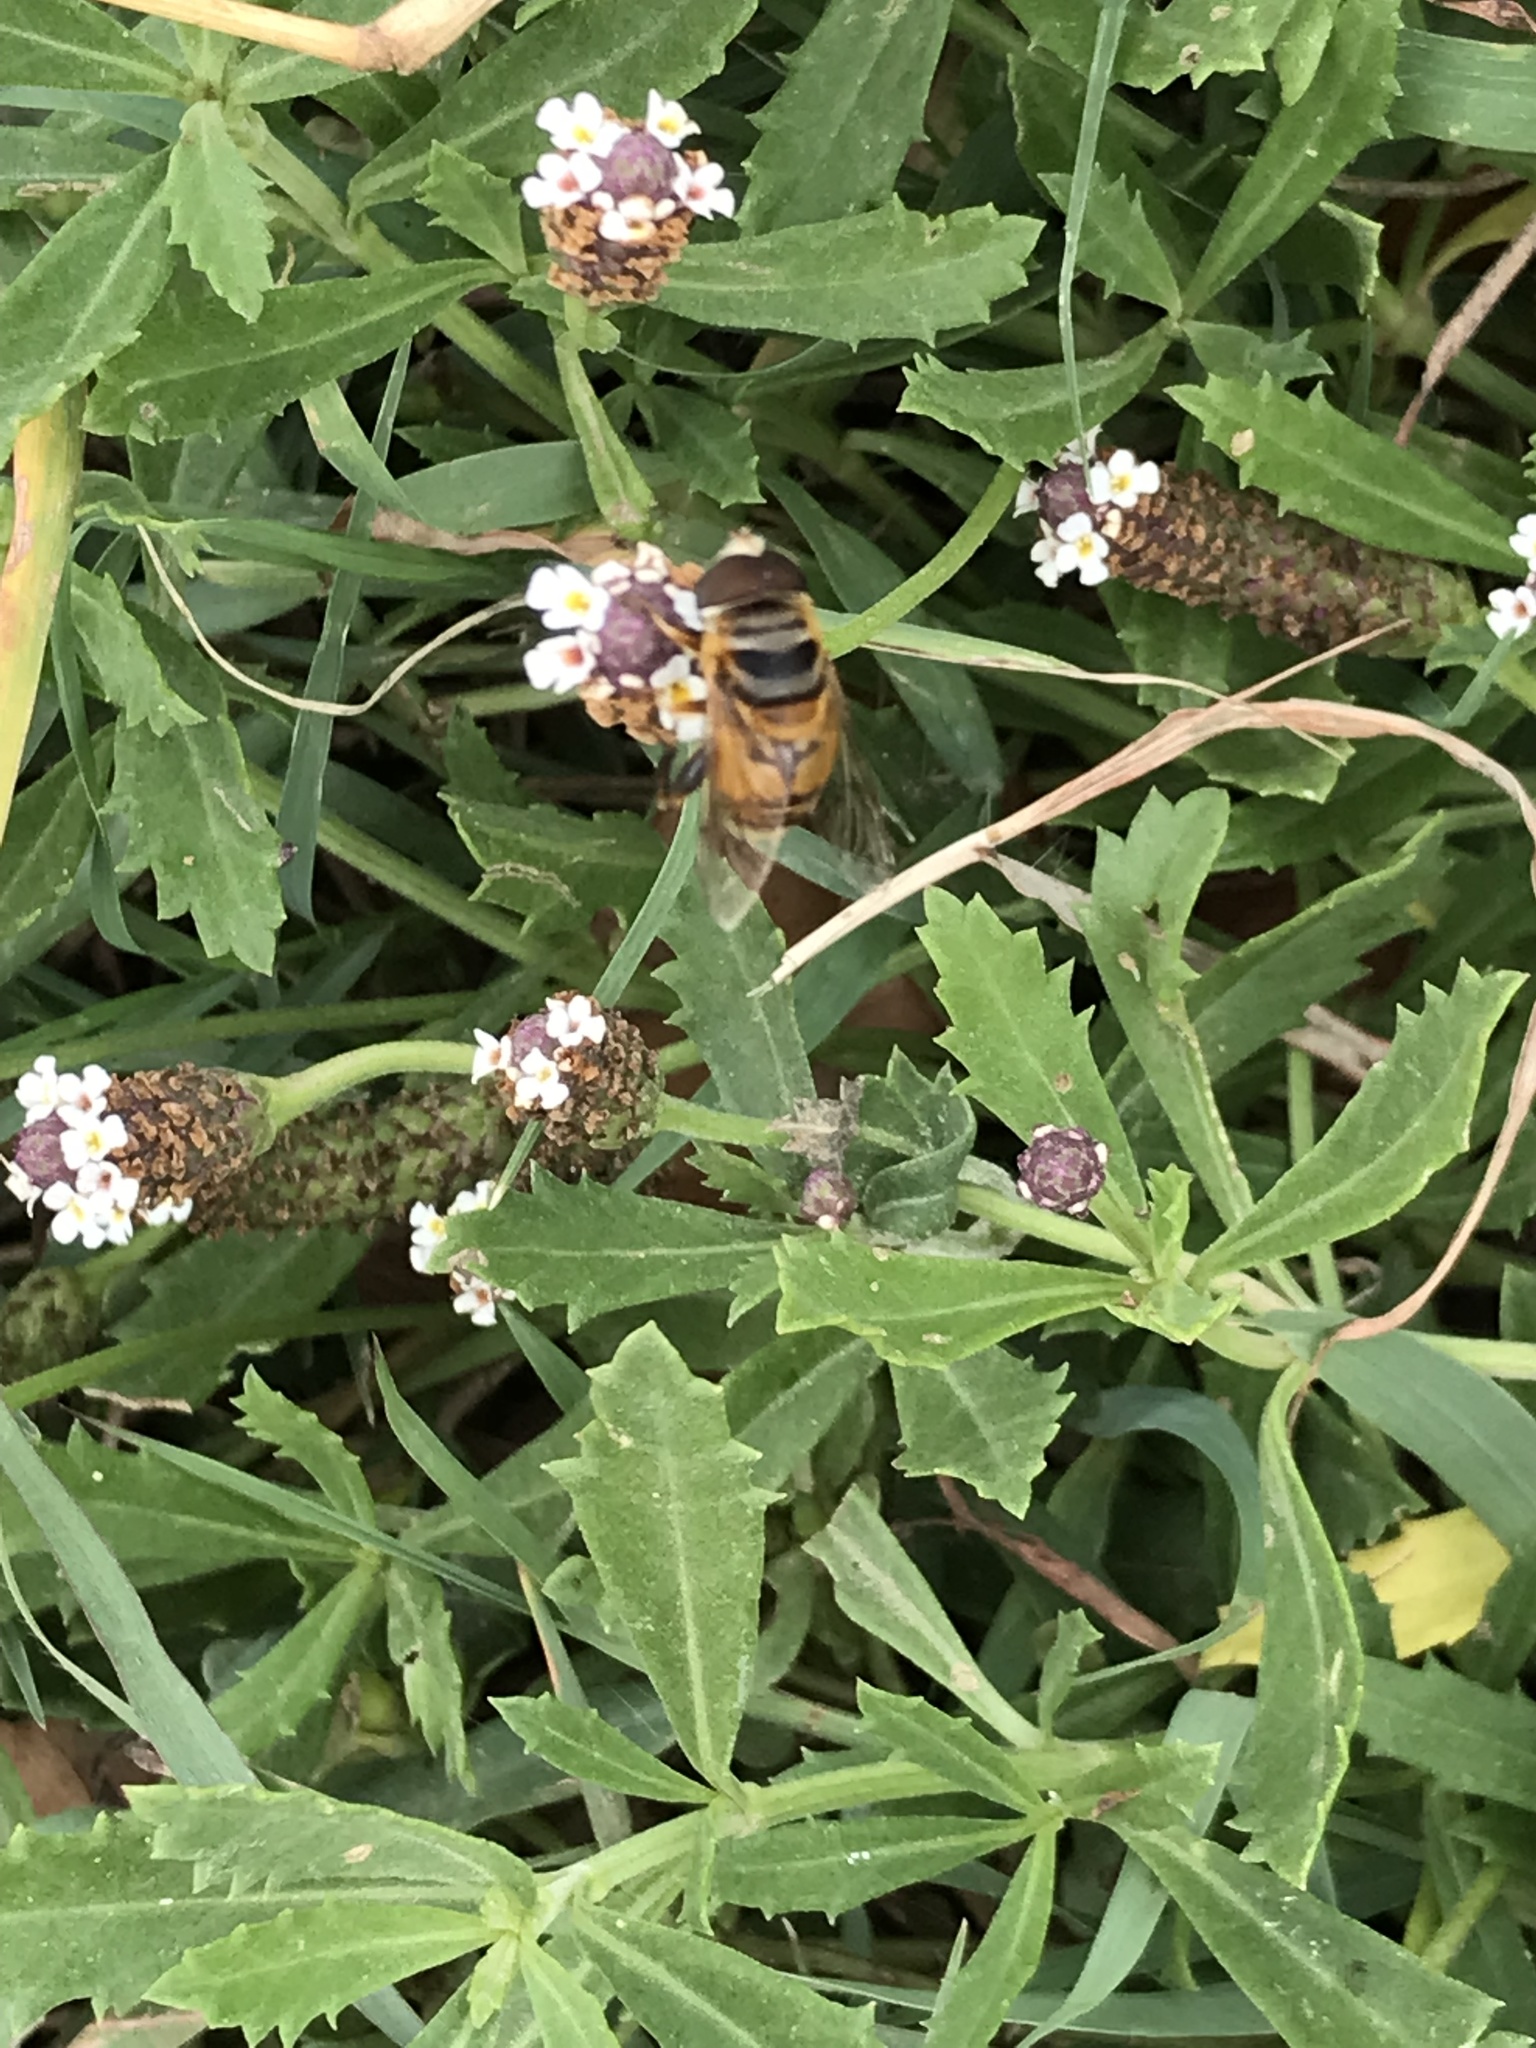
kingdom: Animalia
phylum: Arthropoda
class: Insecta
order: Diptera
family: Syrphidae
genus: Palpada
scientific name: Palpada vinetorum
